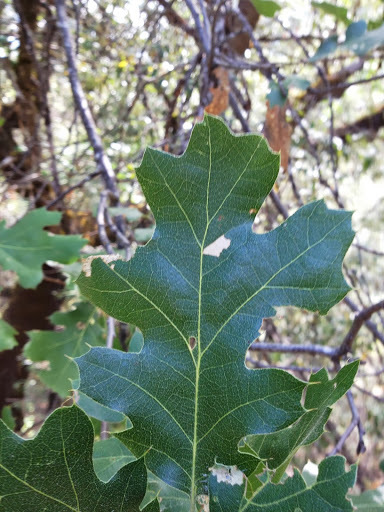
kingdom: Plantae
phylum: Tracheophyta
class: Magnoliopsida
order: Fagales
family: Fagaceae
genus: Quercus
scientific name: Quercus kelloggii
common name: California black oak
